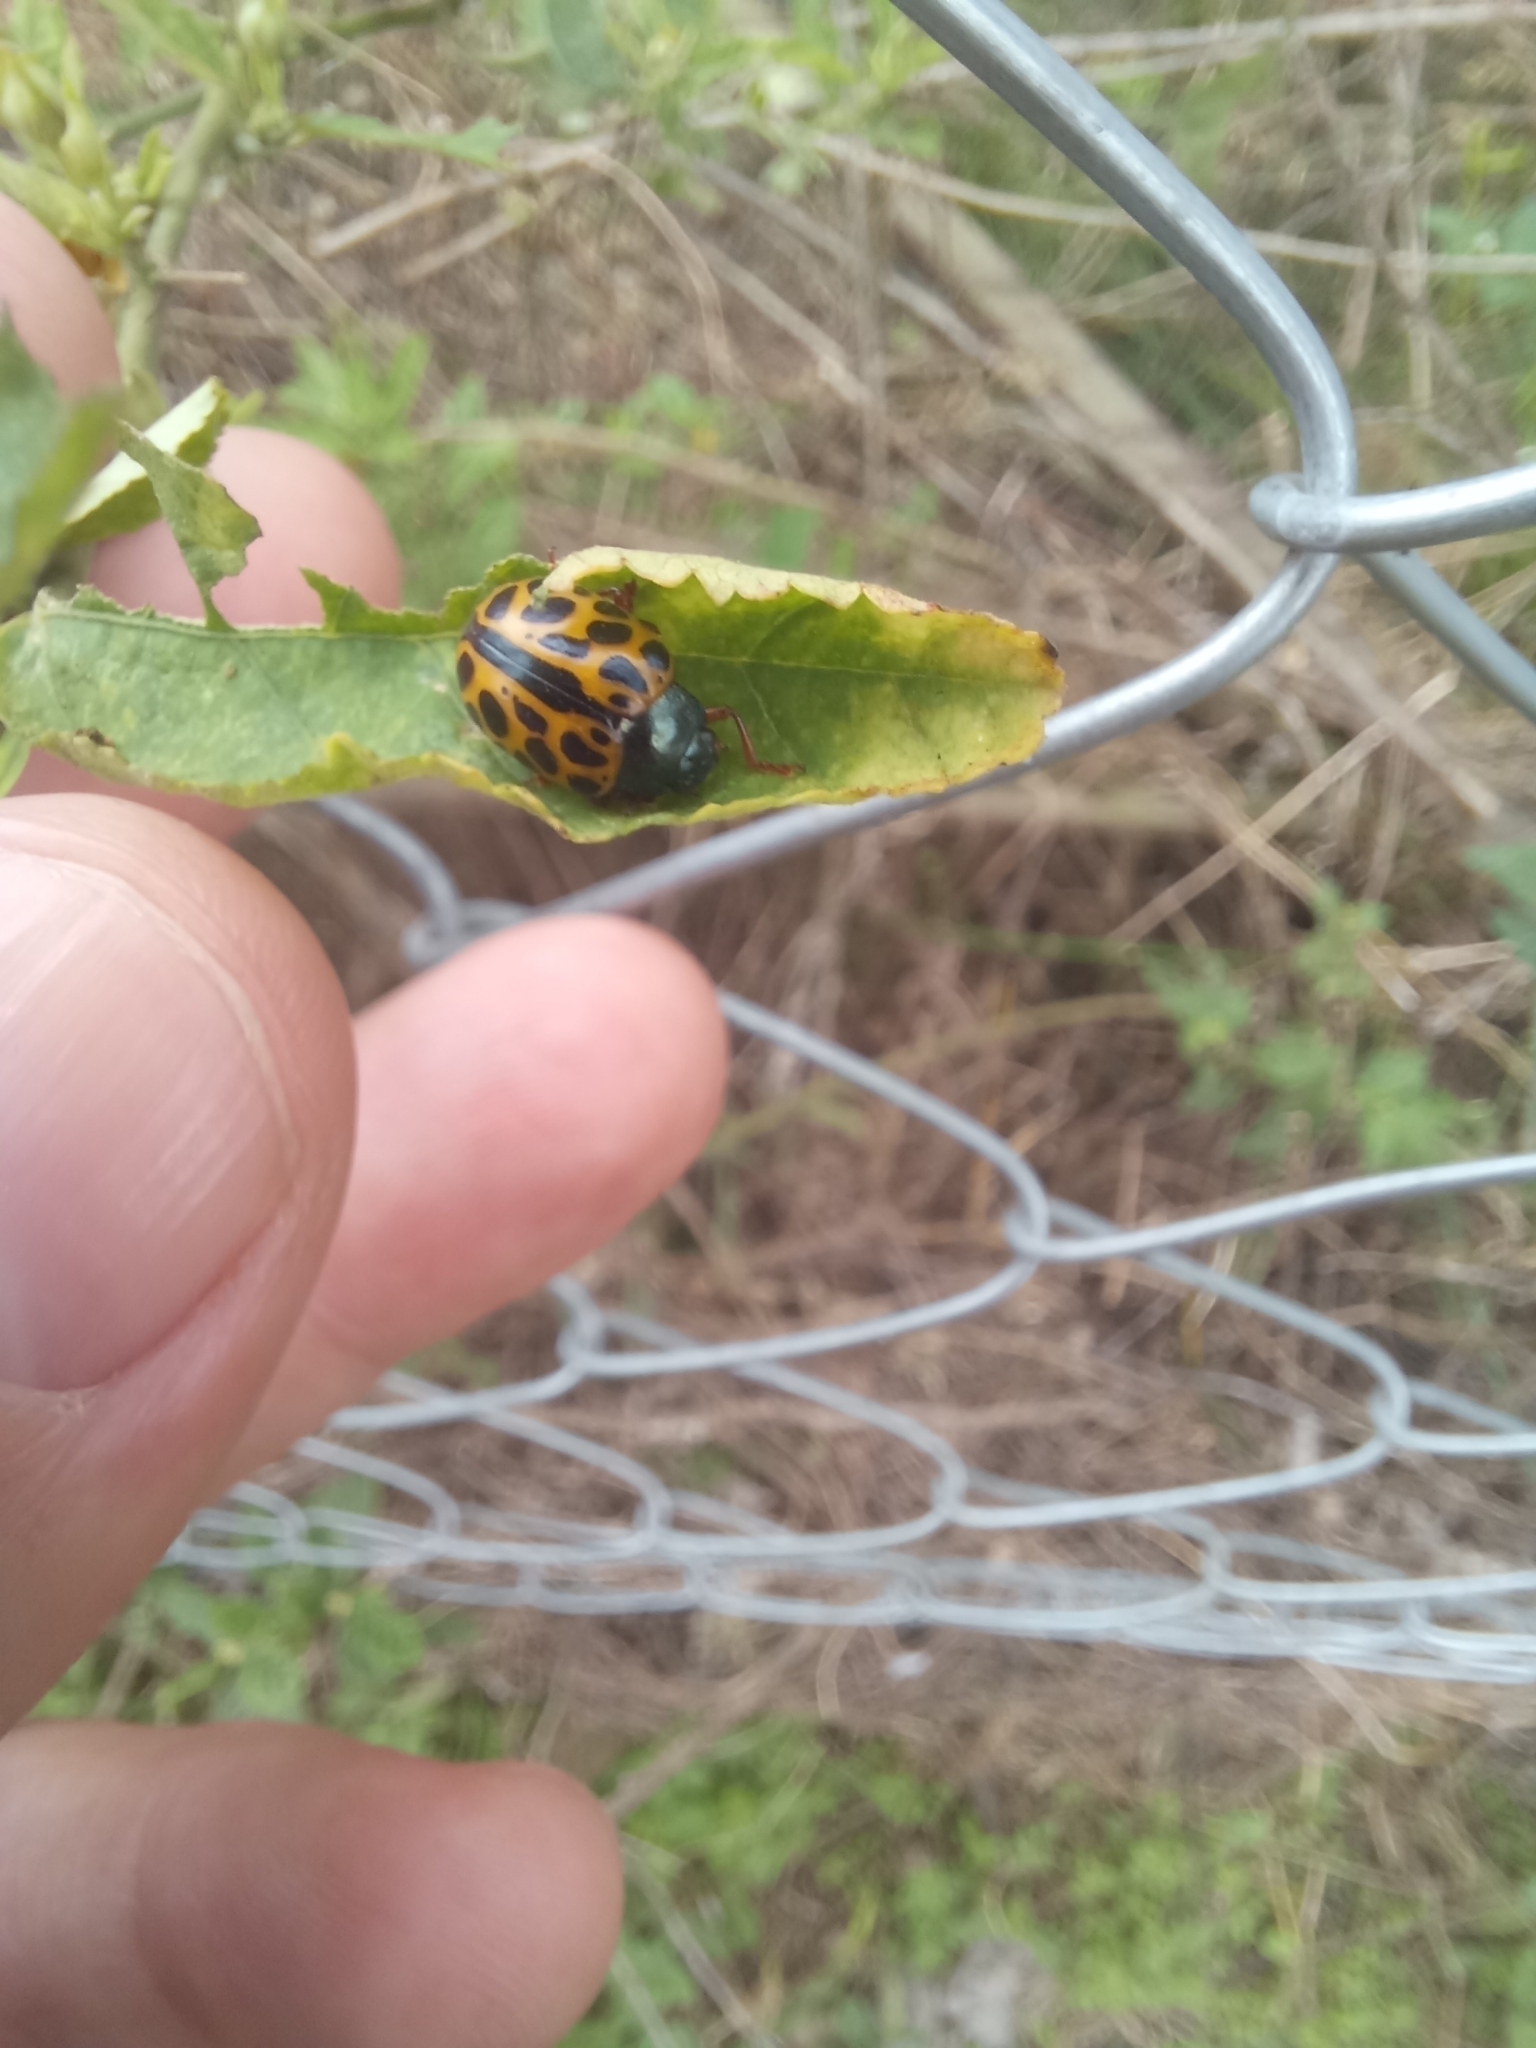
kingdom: Animalia
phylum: Arthropoda
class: Insecta
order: Coleoptera
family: Chrysomelidae
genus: Calligrapha
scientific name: Calligrapha polyspila
